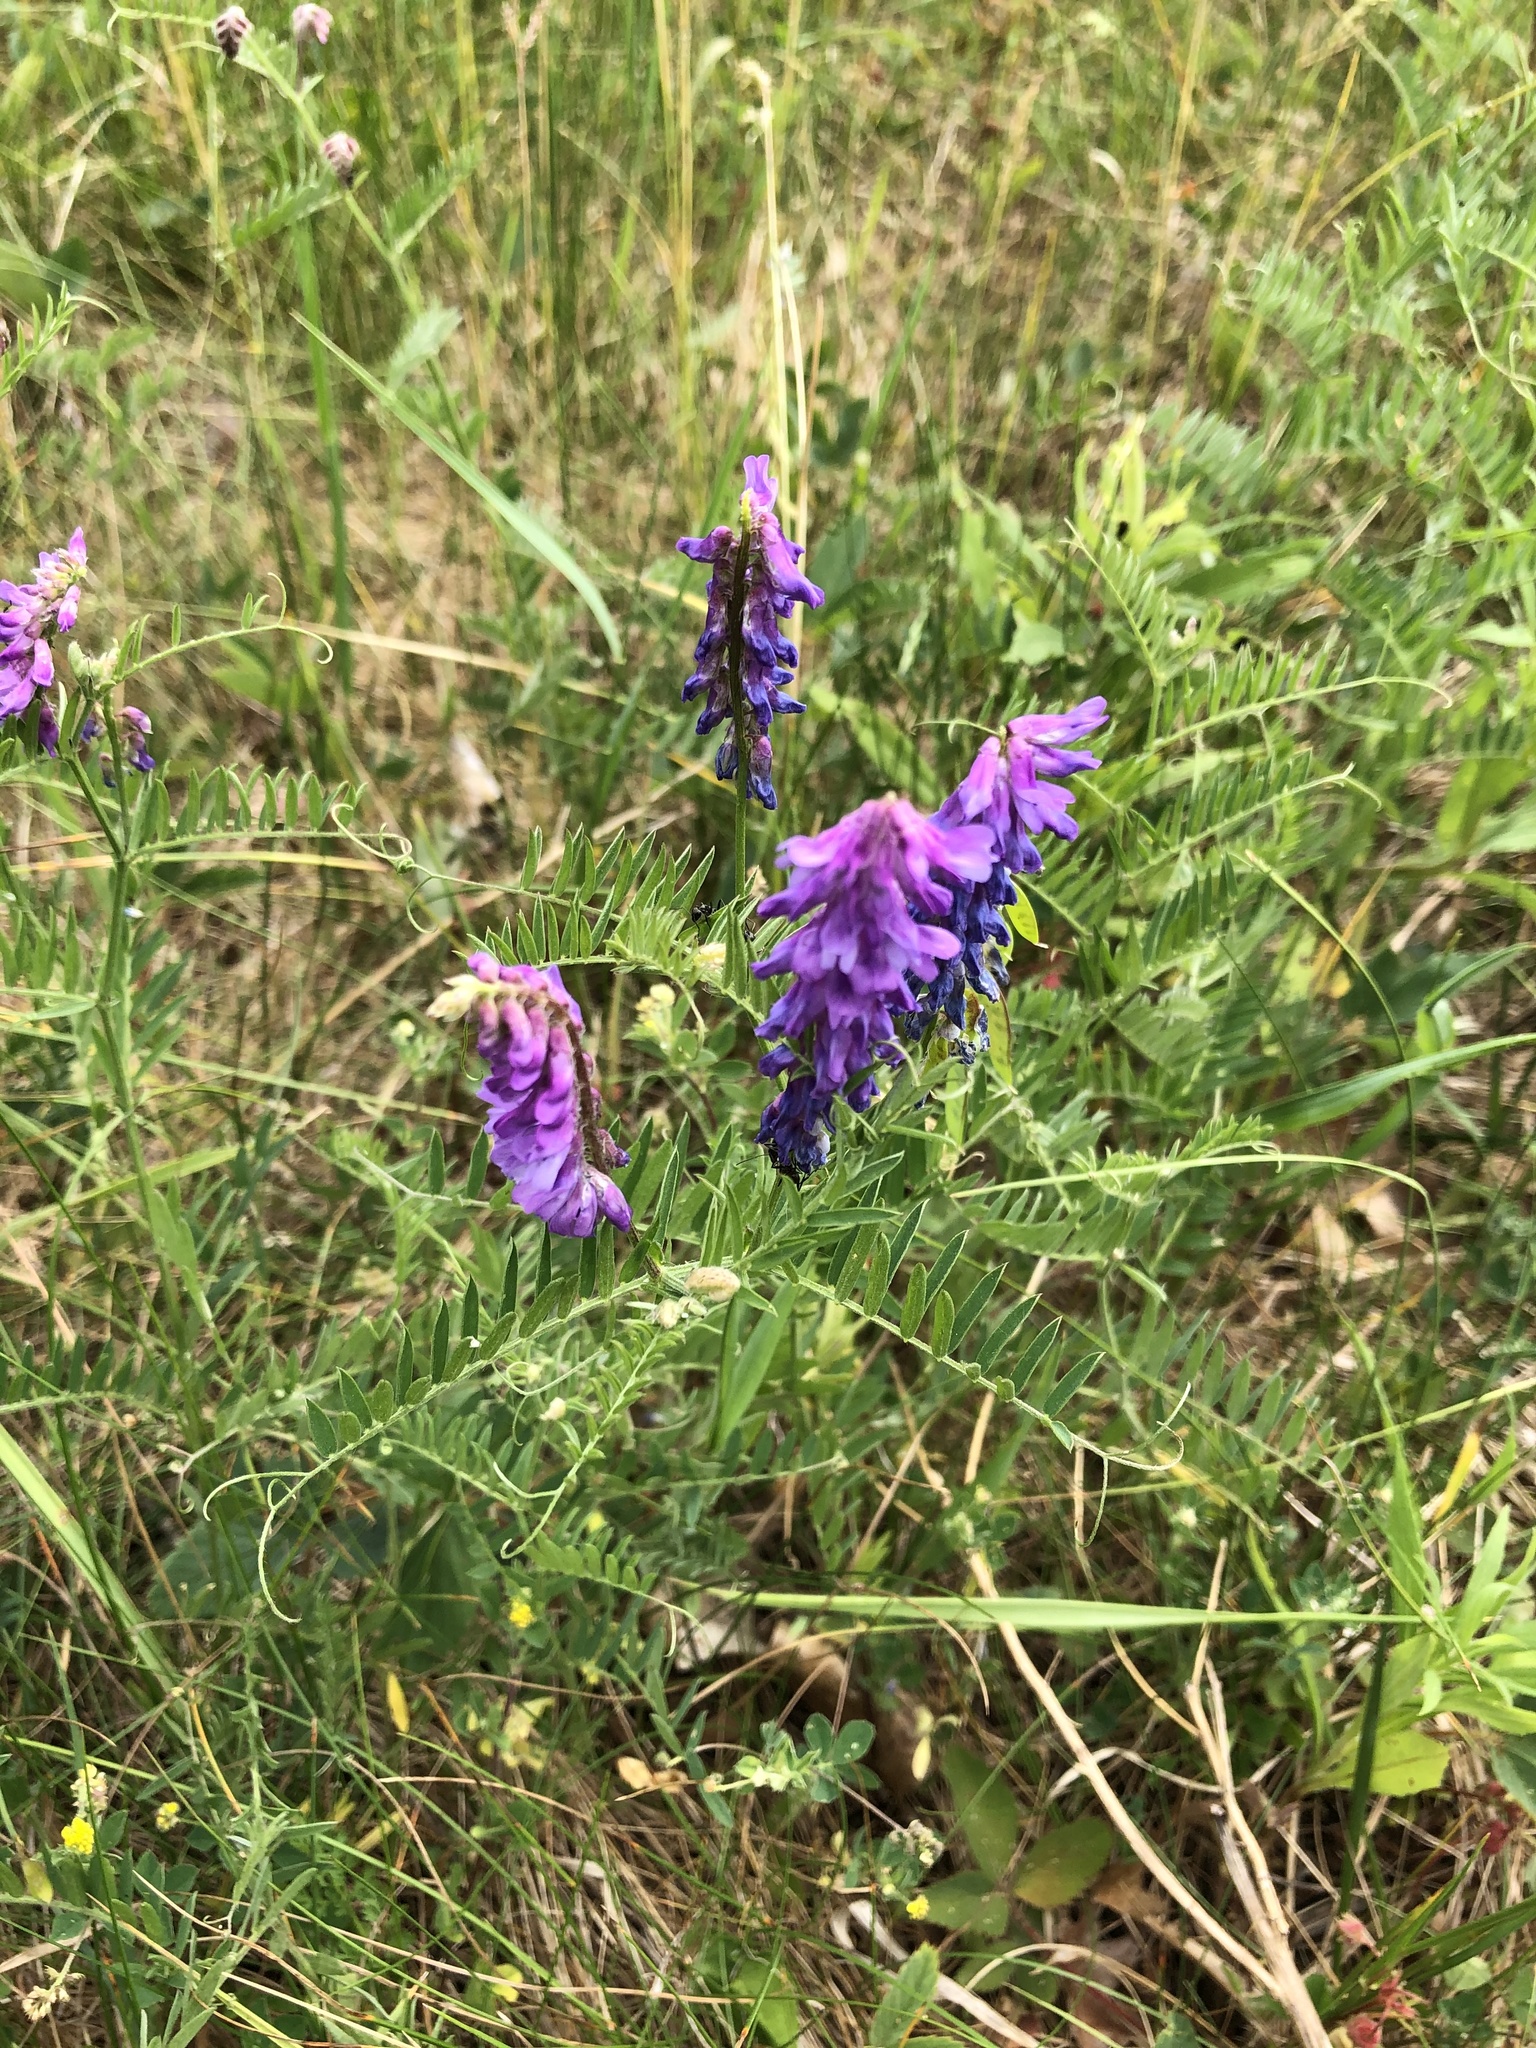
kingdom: Plantae
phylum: Tracheophyta
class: Magnoliopsida
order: Fabales
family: Fabaceae
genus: Vicia
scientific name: Vicia cracca
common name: Bird vetch
